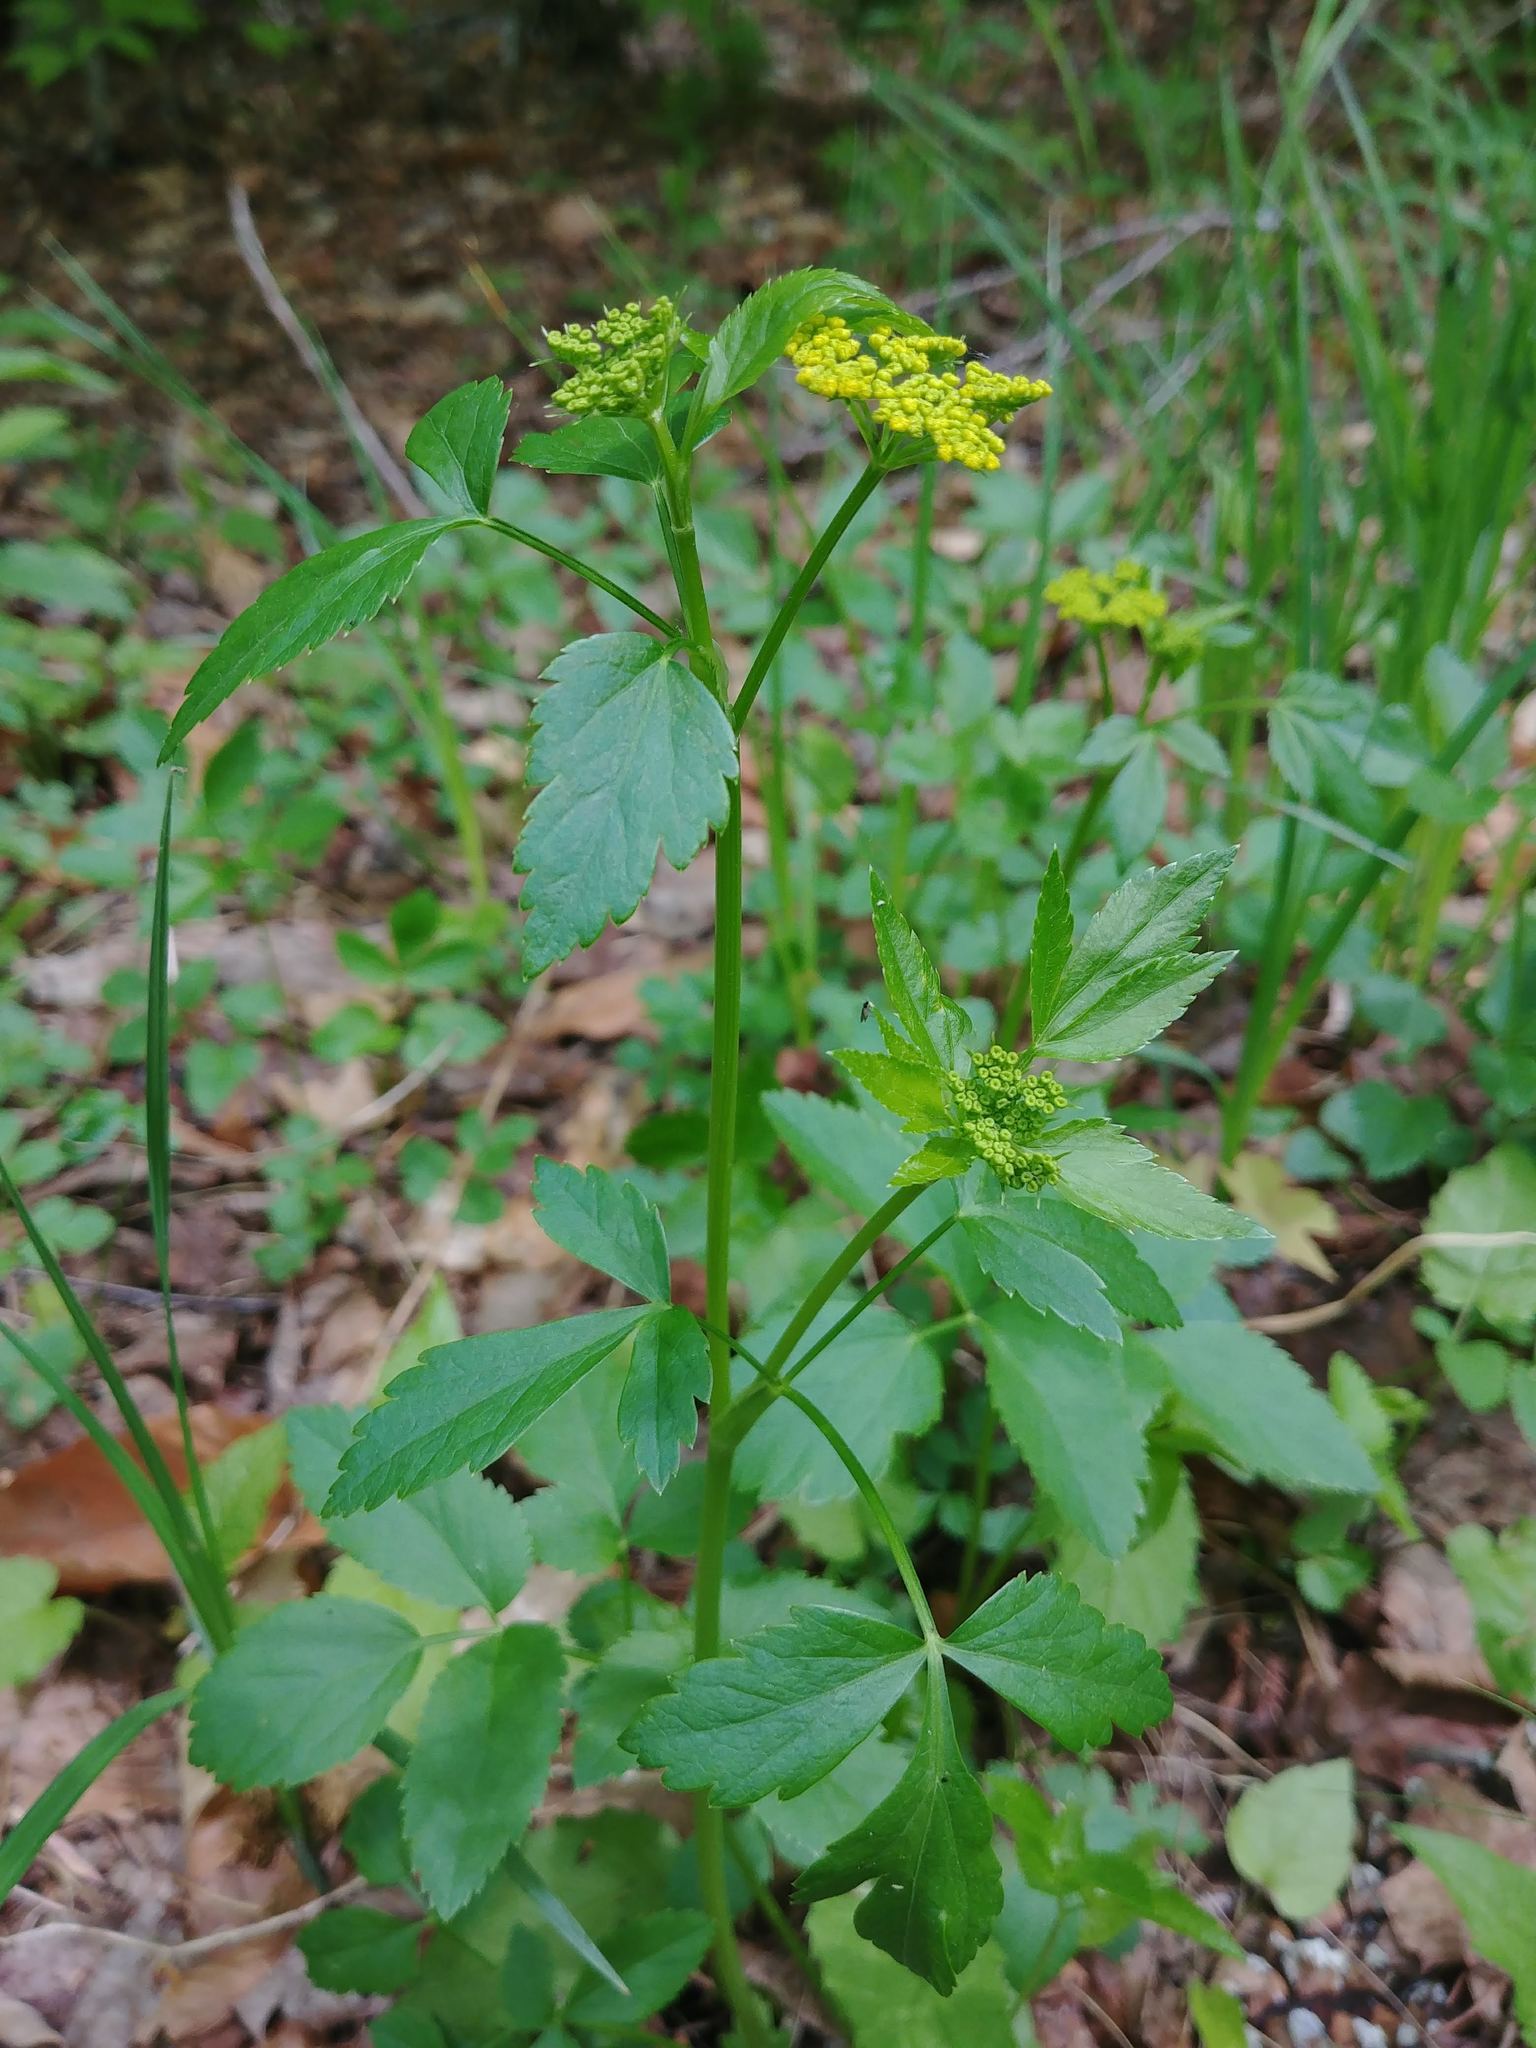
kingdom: Plantae
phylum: Tracheophyta
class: Magnoliopsida
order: Apiales
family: Apiaceae
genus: Zizia
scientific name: Zizia aurea
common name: Golden alexanders
